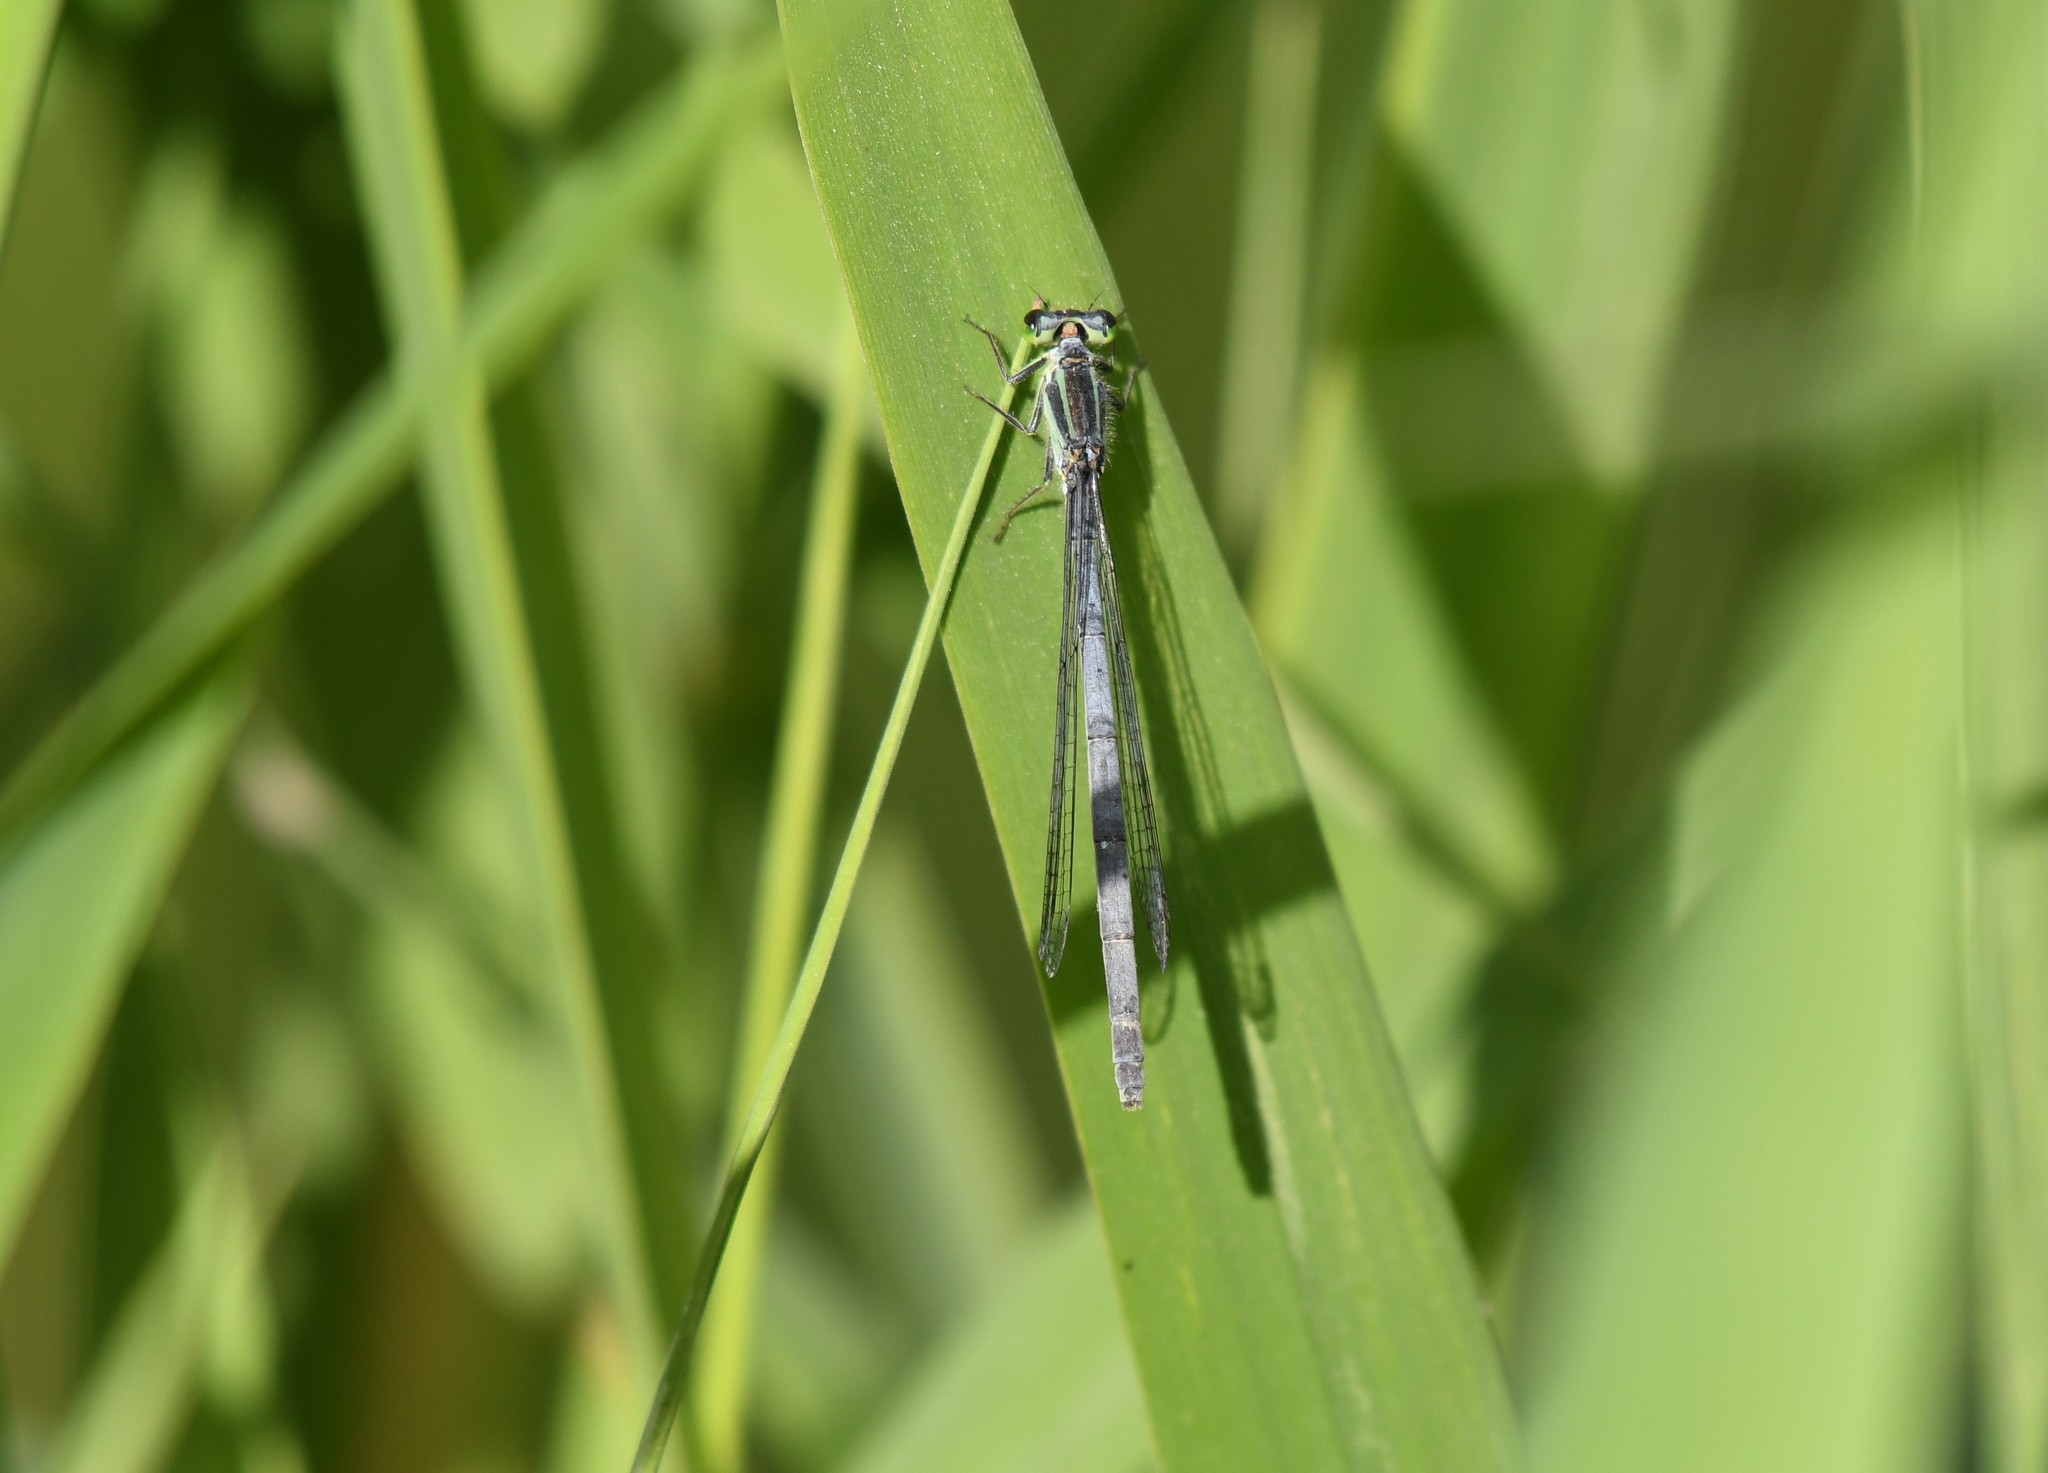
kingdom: Animalia
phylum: Arthropoda
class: Insecta
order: Odonata
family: Coenagrionidae
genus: Ischnura
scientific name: Ischnura verticalis
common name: Eastern forktail
